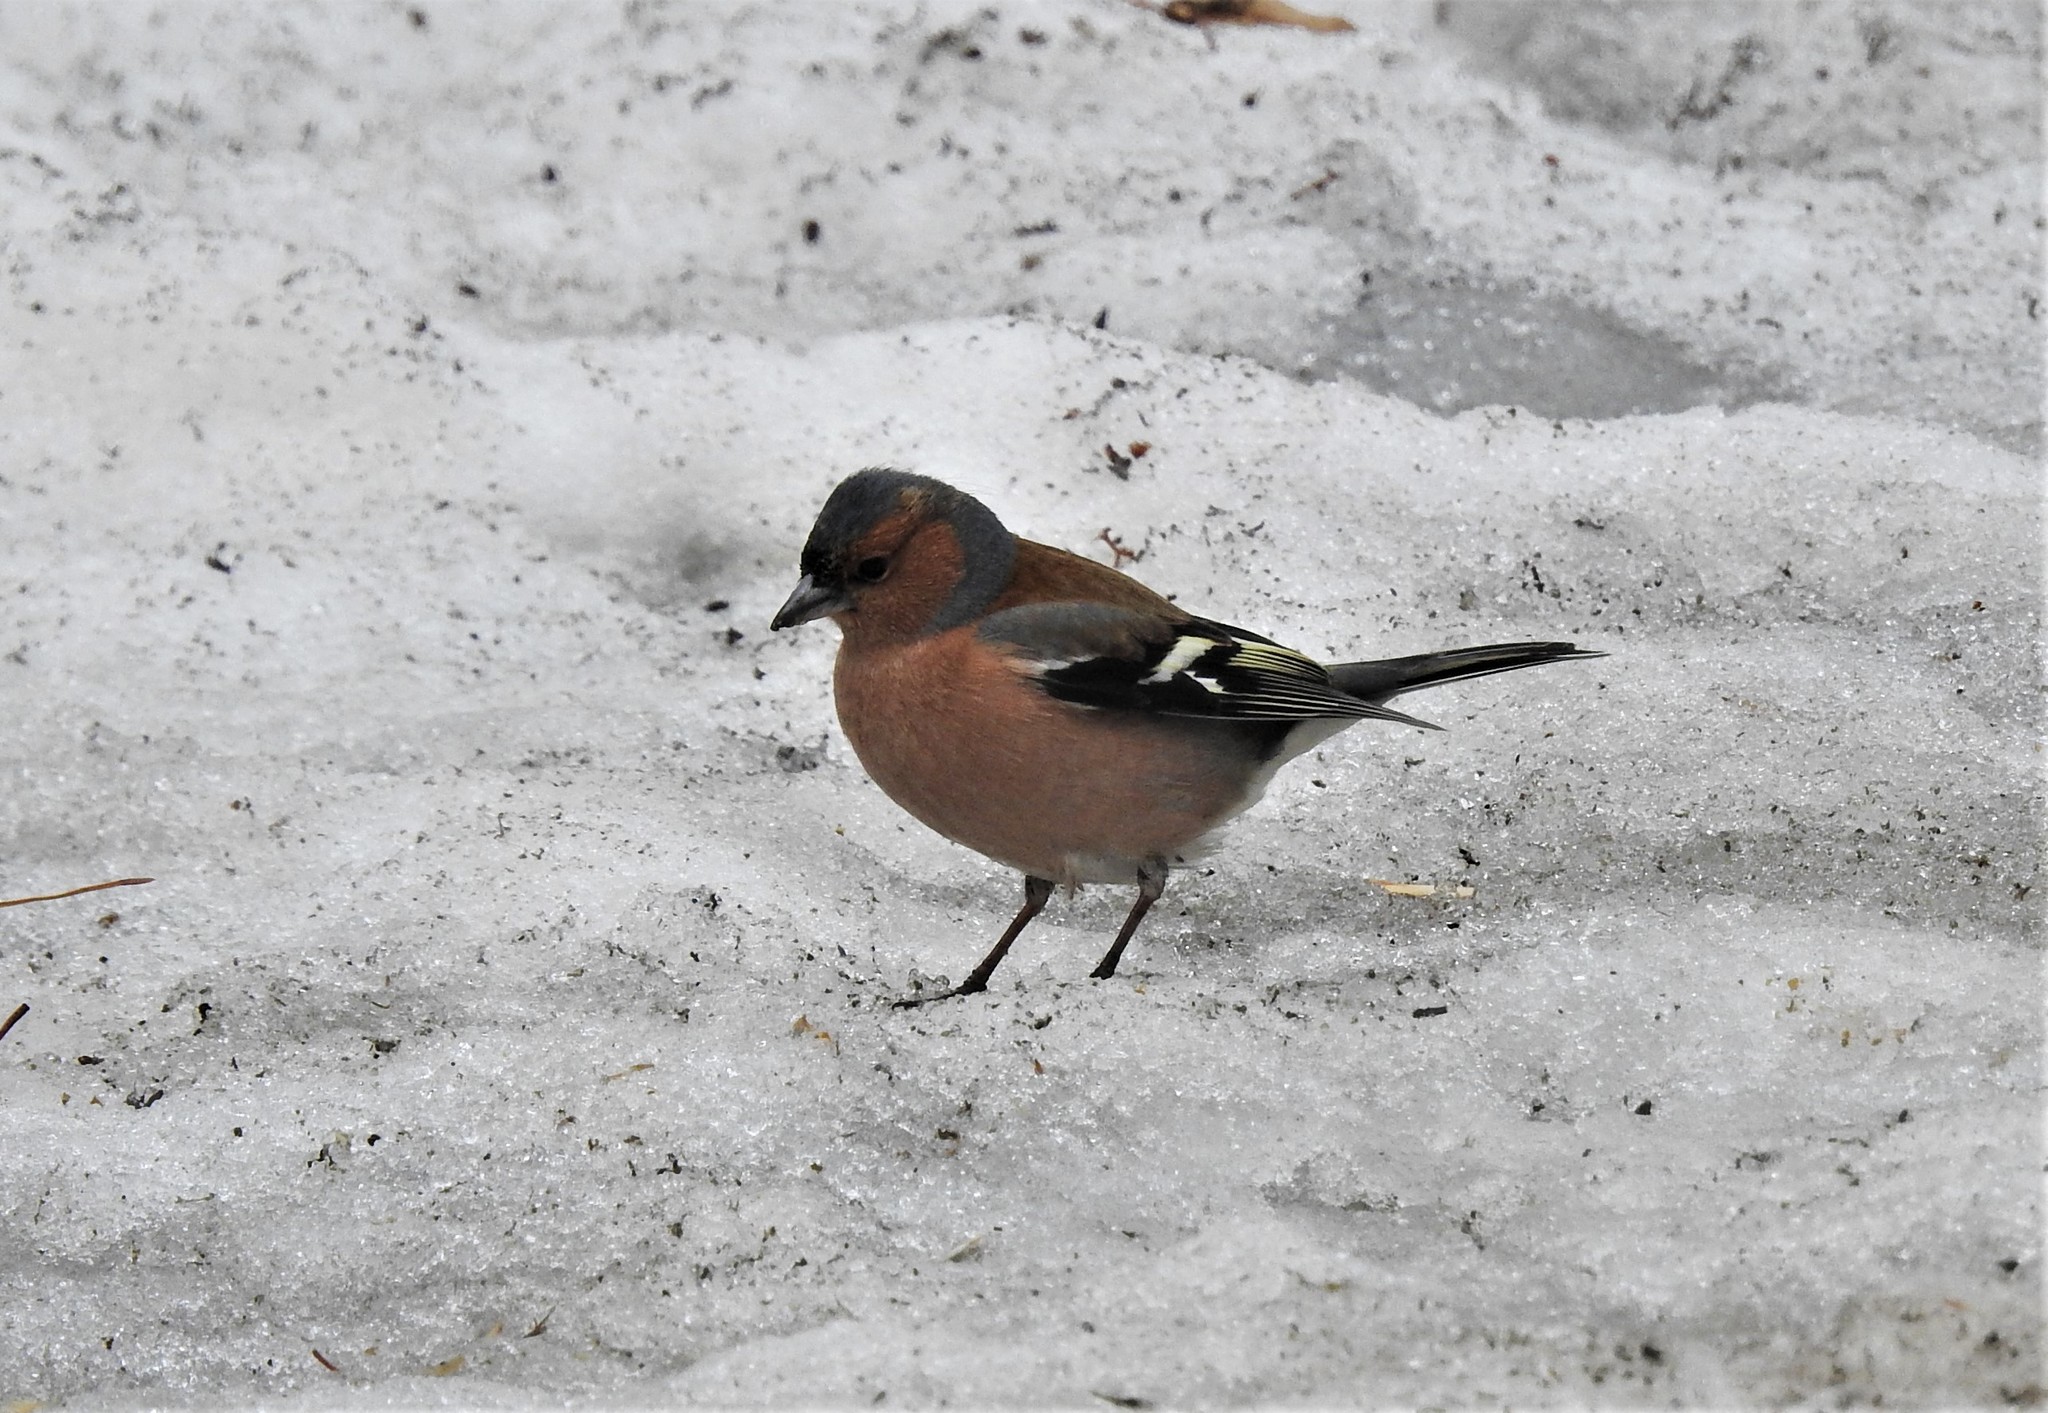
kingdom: Animalia
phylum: Chordata
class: Aves
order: Passeriformes
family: Fringillidae
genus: Fringilla
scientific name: Fringilla coelebs
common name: Common chaffinch
